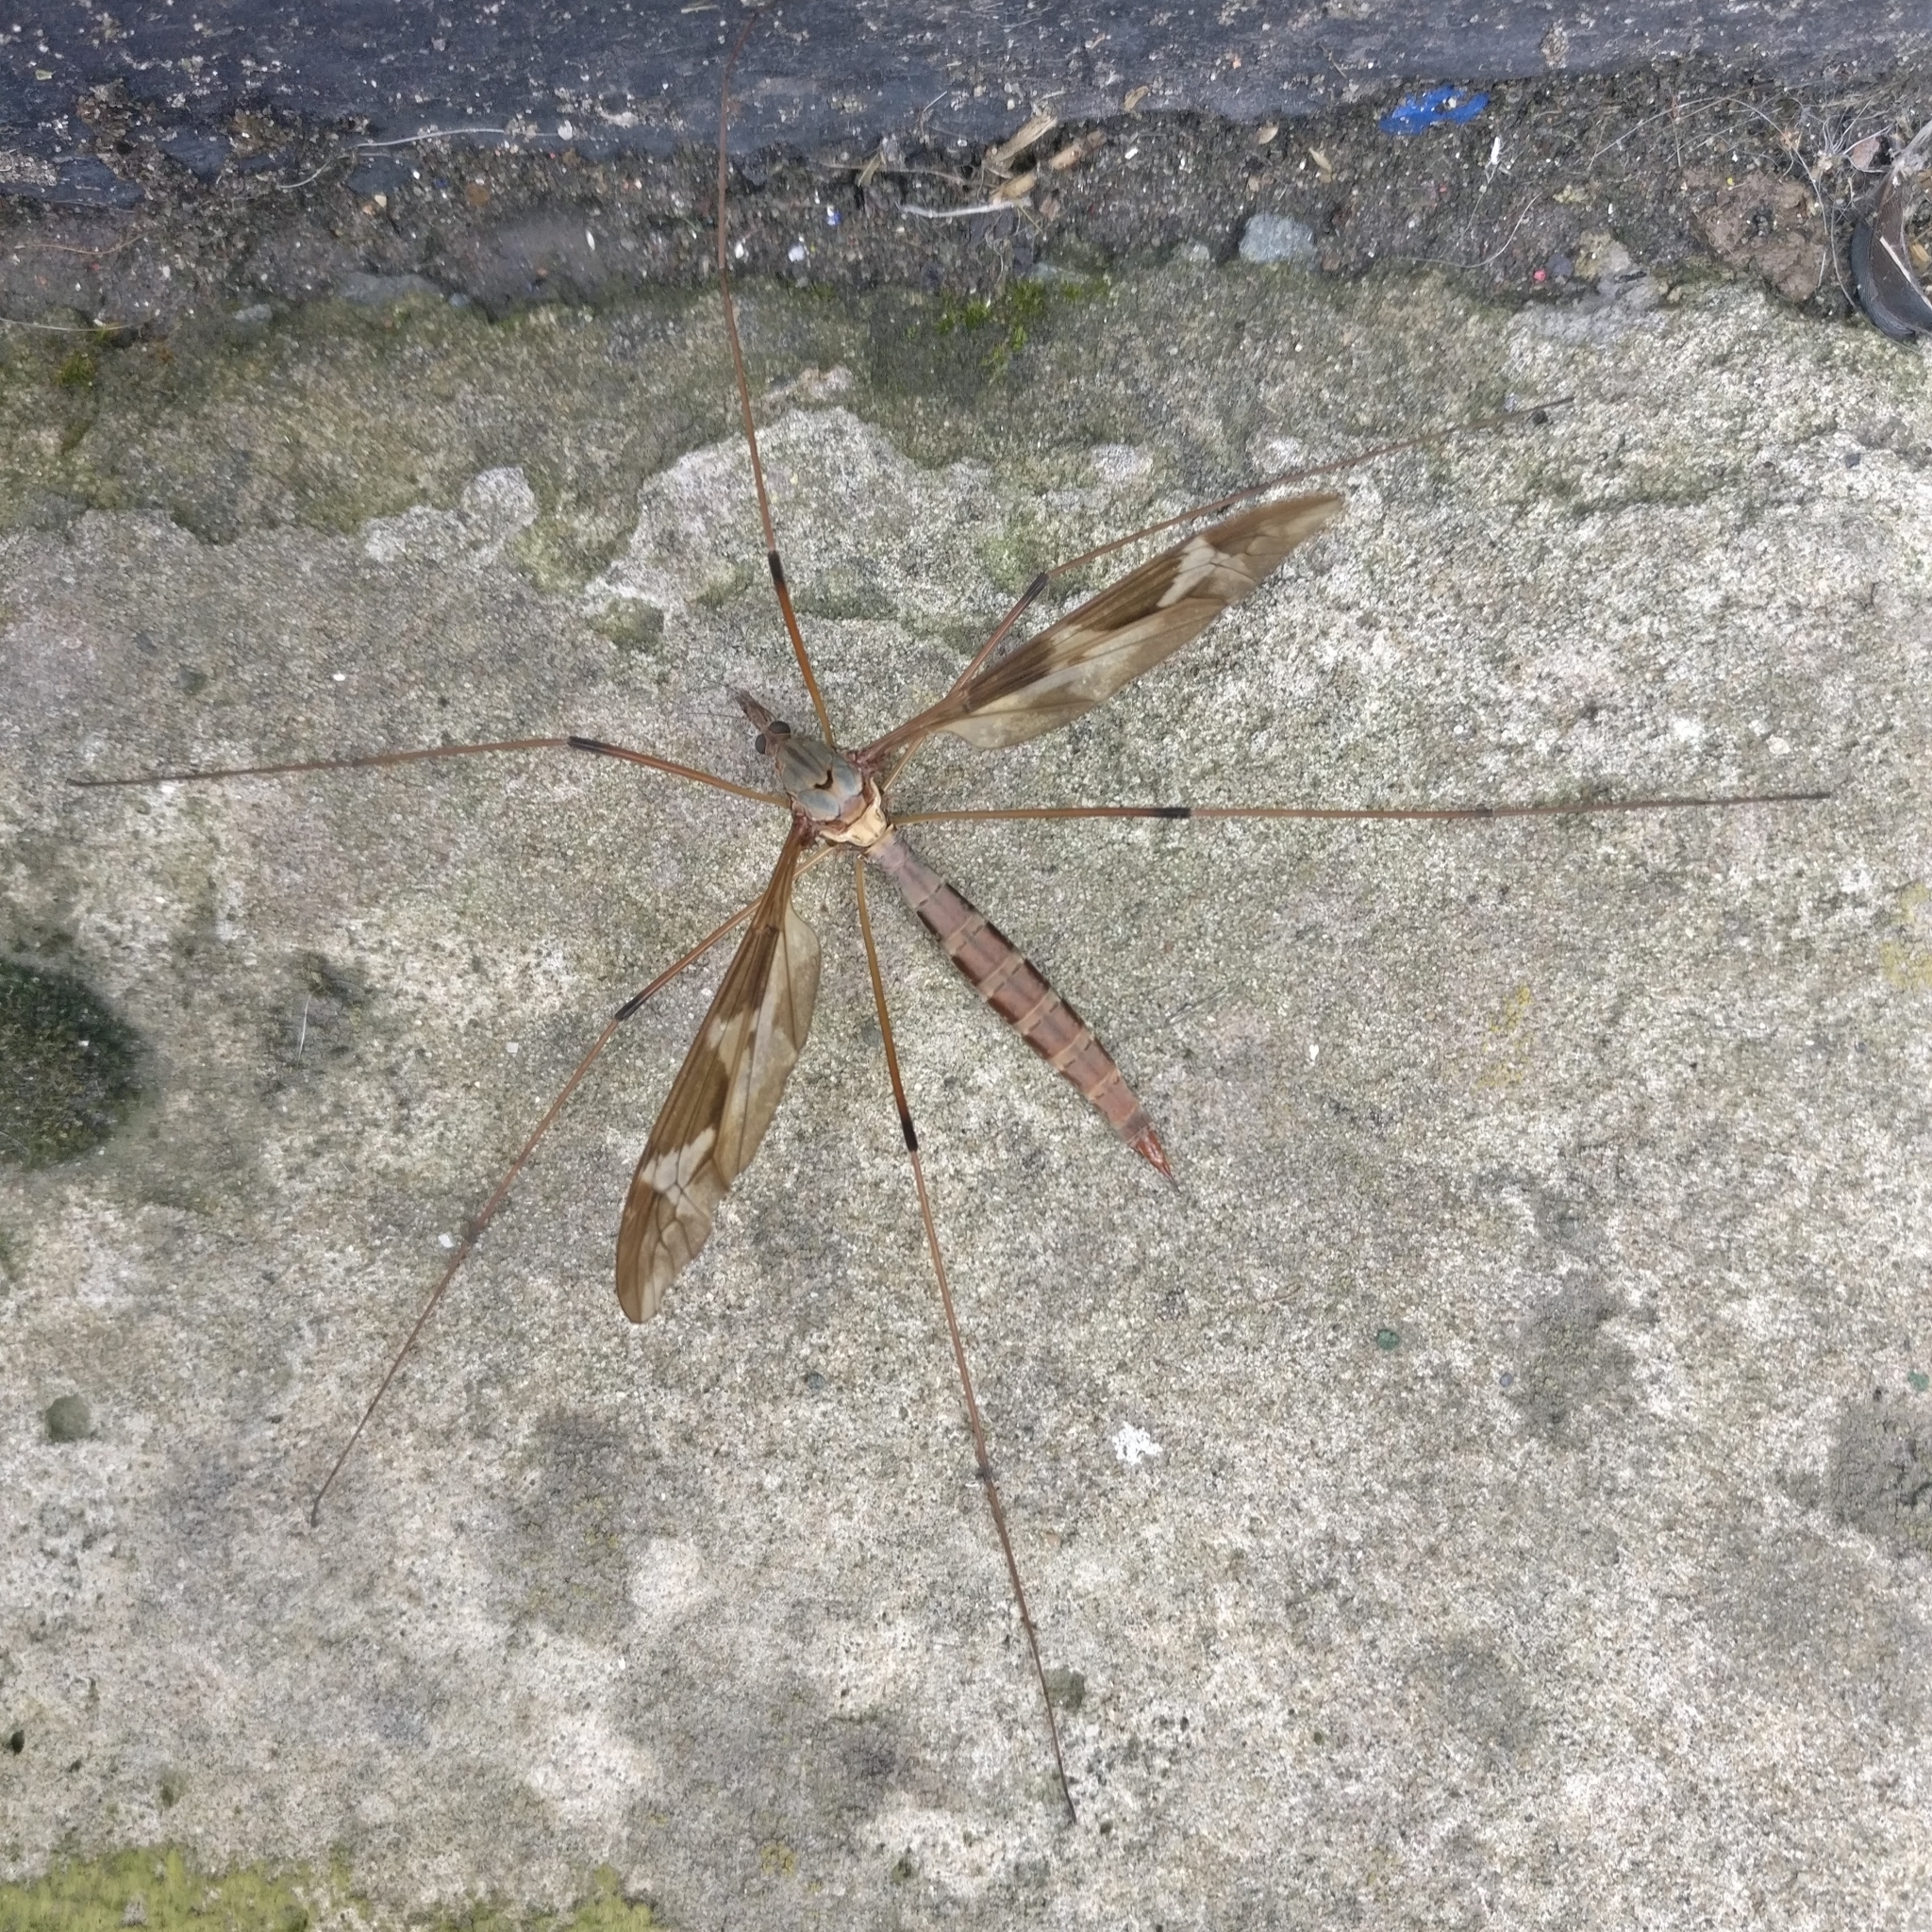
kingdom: Animalia
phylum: Arthropoda
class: Insecta
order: Diptera
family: Tipulidae
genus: Tipula
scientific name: Tipula maxima
